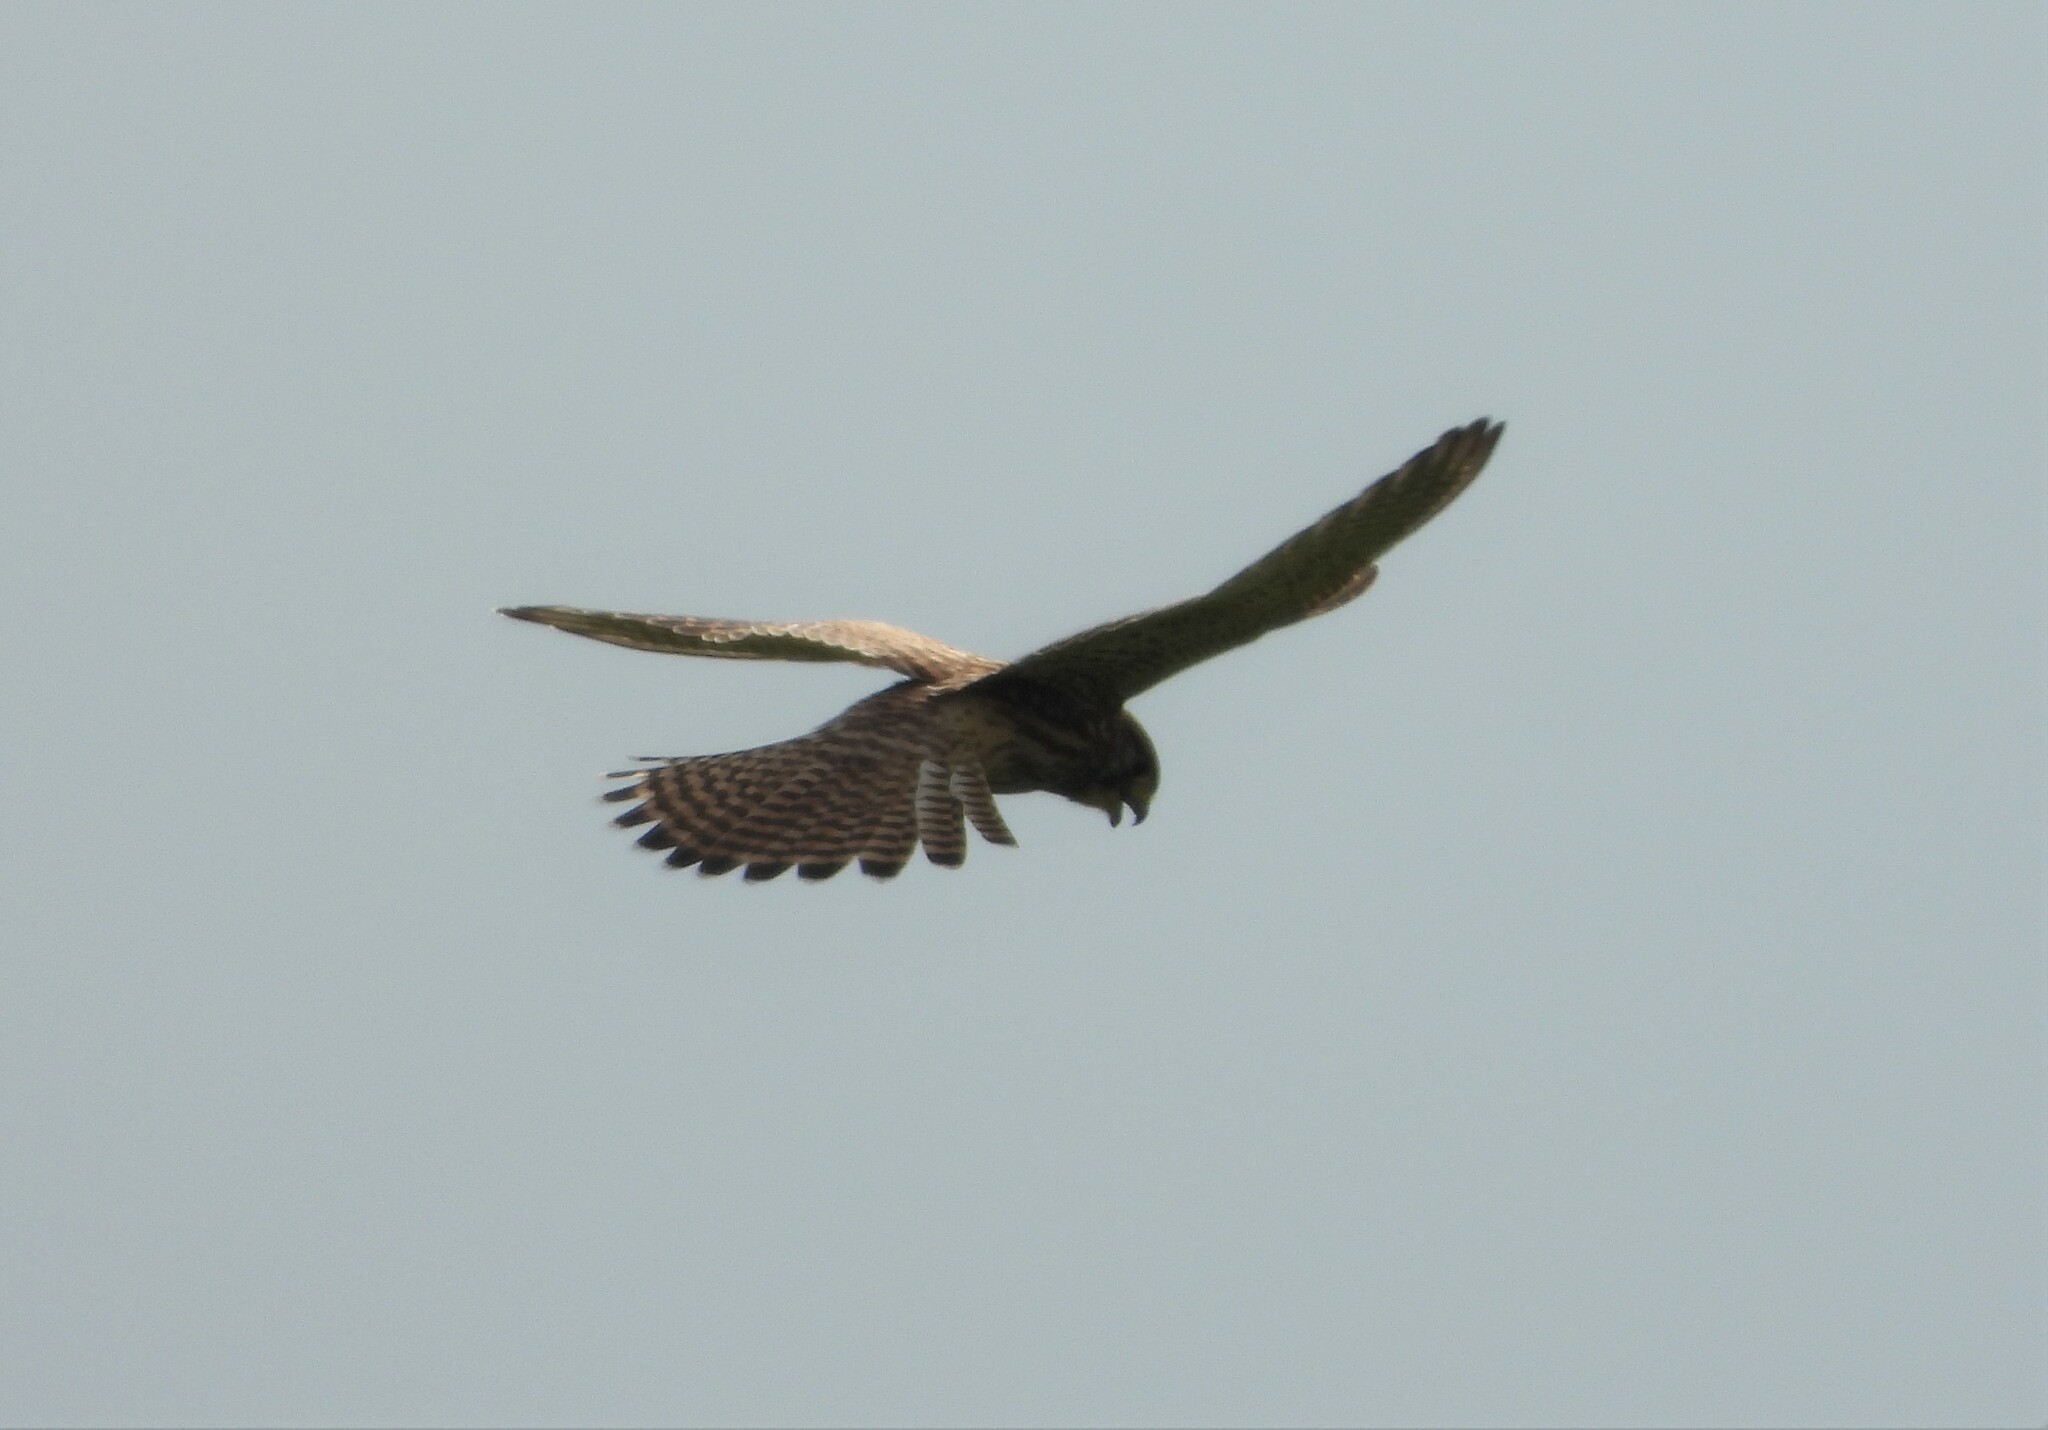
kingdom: Animalia
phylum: Chordata
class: Aves
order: Falconiformes
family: Falconidae
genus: Falco
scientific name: Falco tinnunculus
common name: Common kestrel
